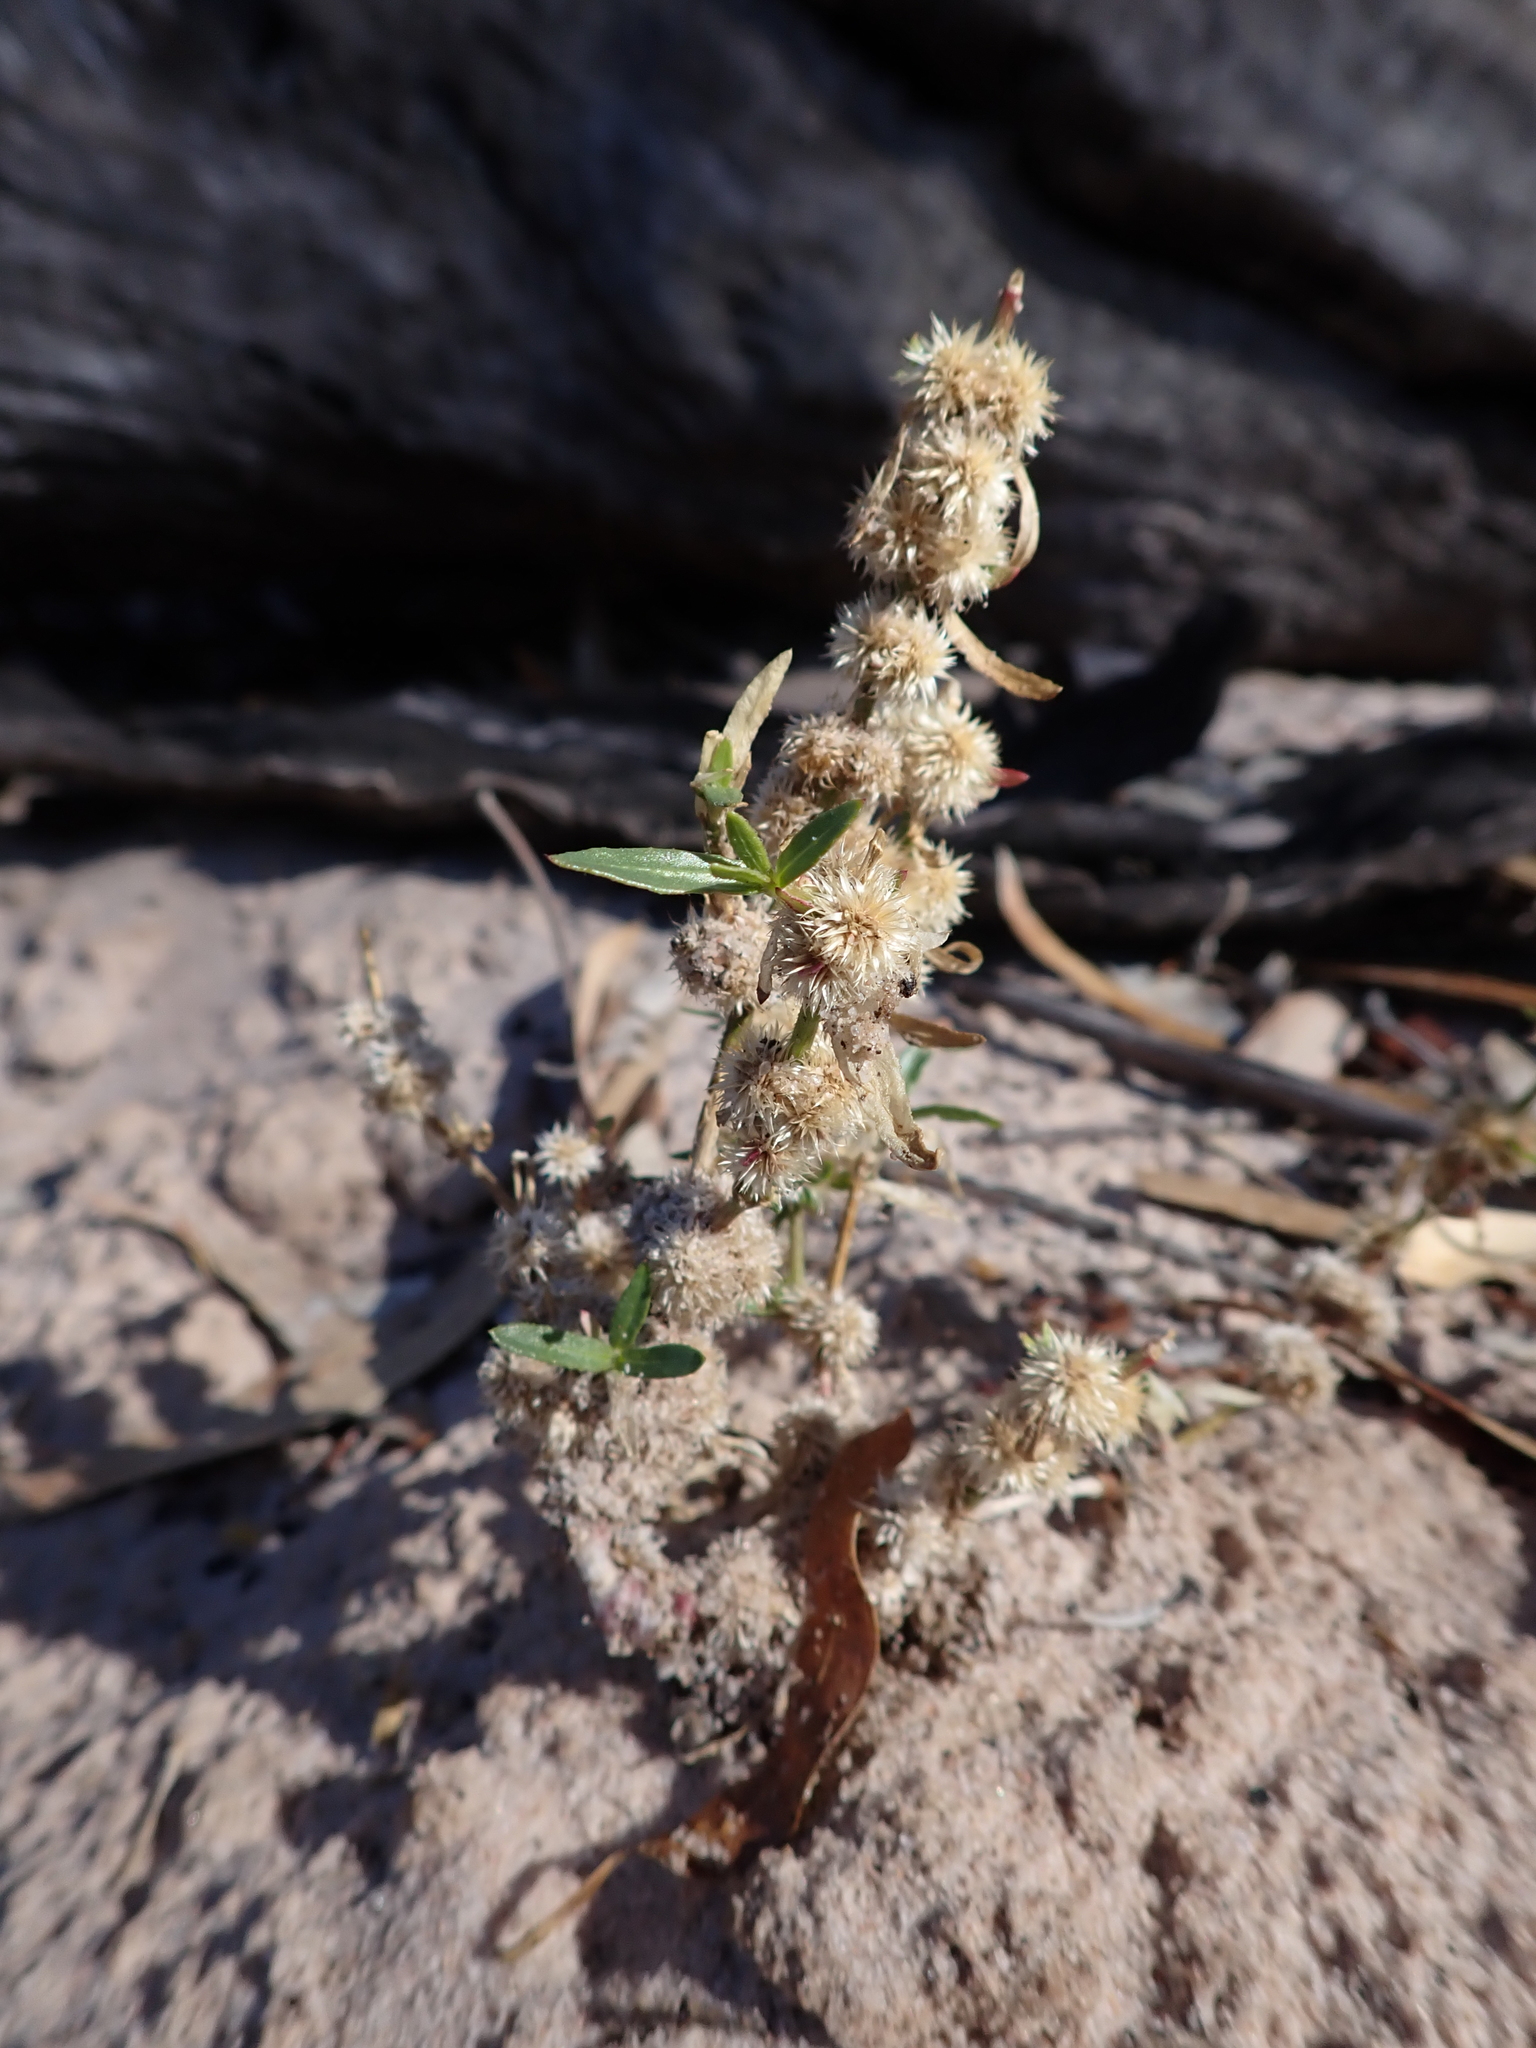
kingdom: Plantae
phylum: Tracheophyta
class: Magnoliopsida
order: Caryophyllales
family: Amaranthaceae
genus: Alternanthera
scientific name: Alternanthera denticulata
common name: Lesser joyweed
